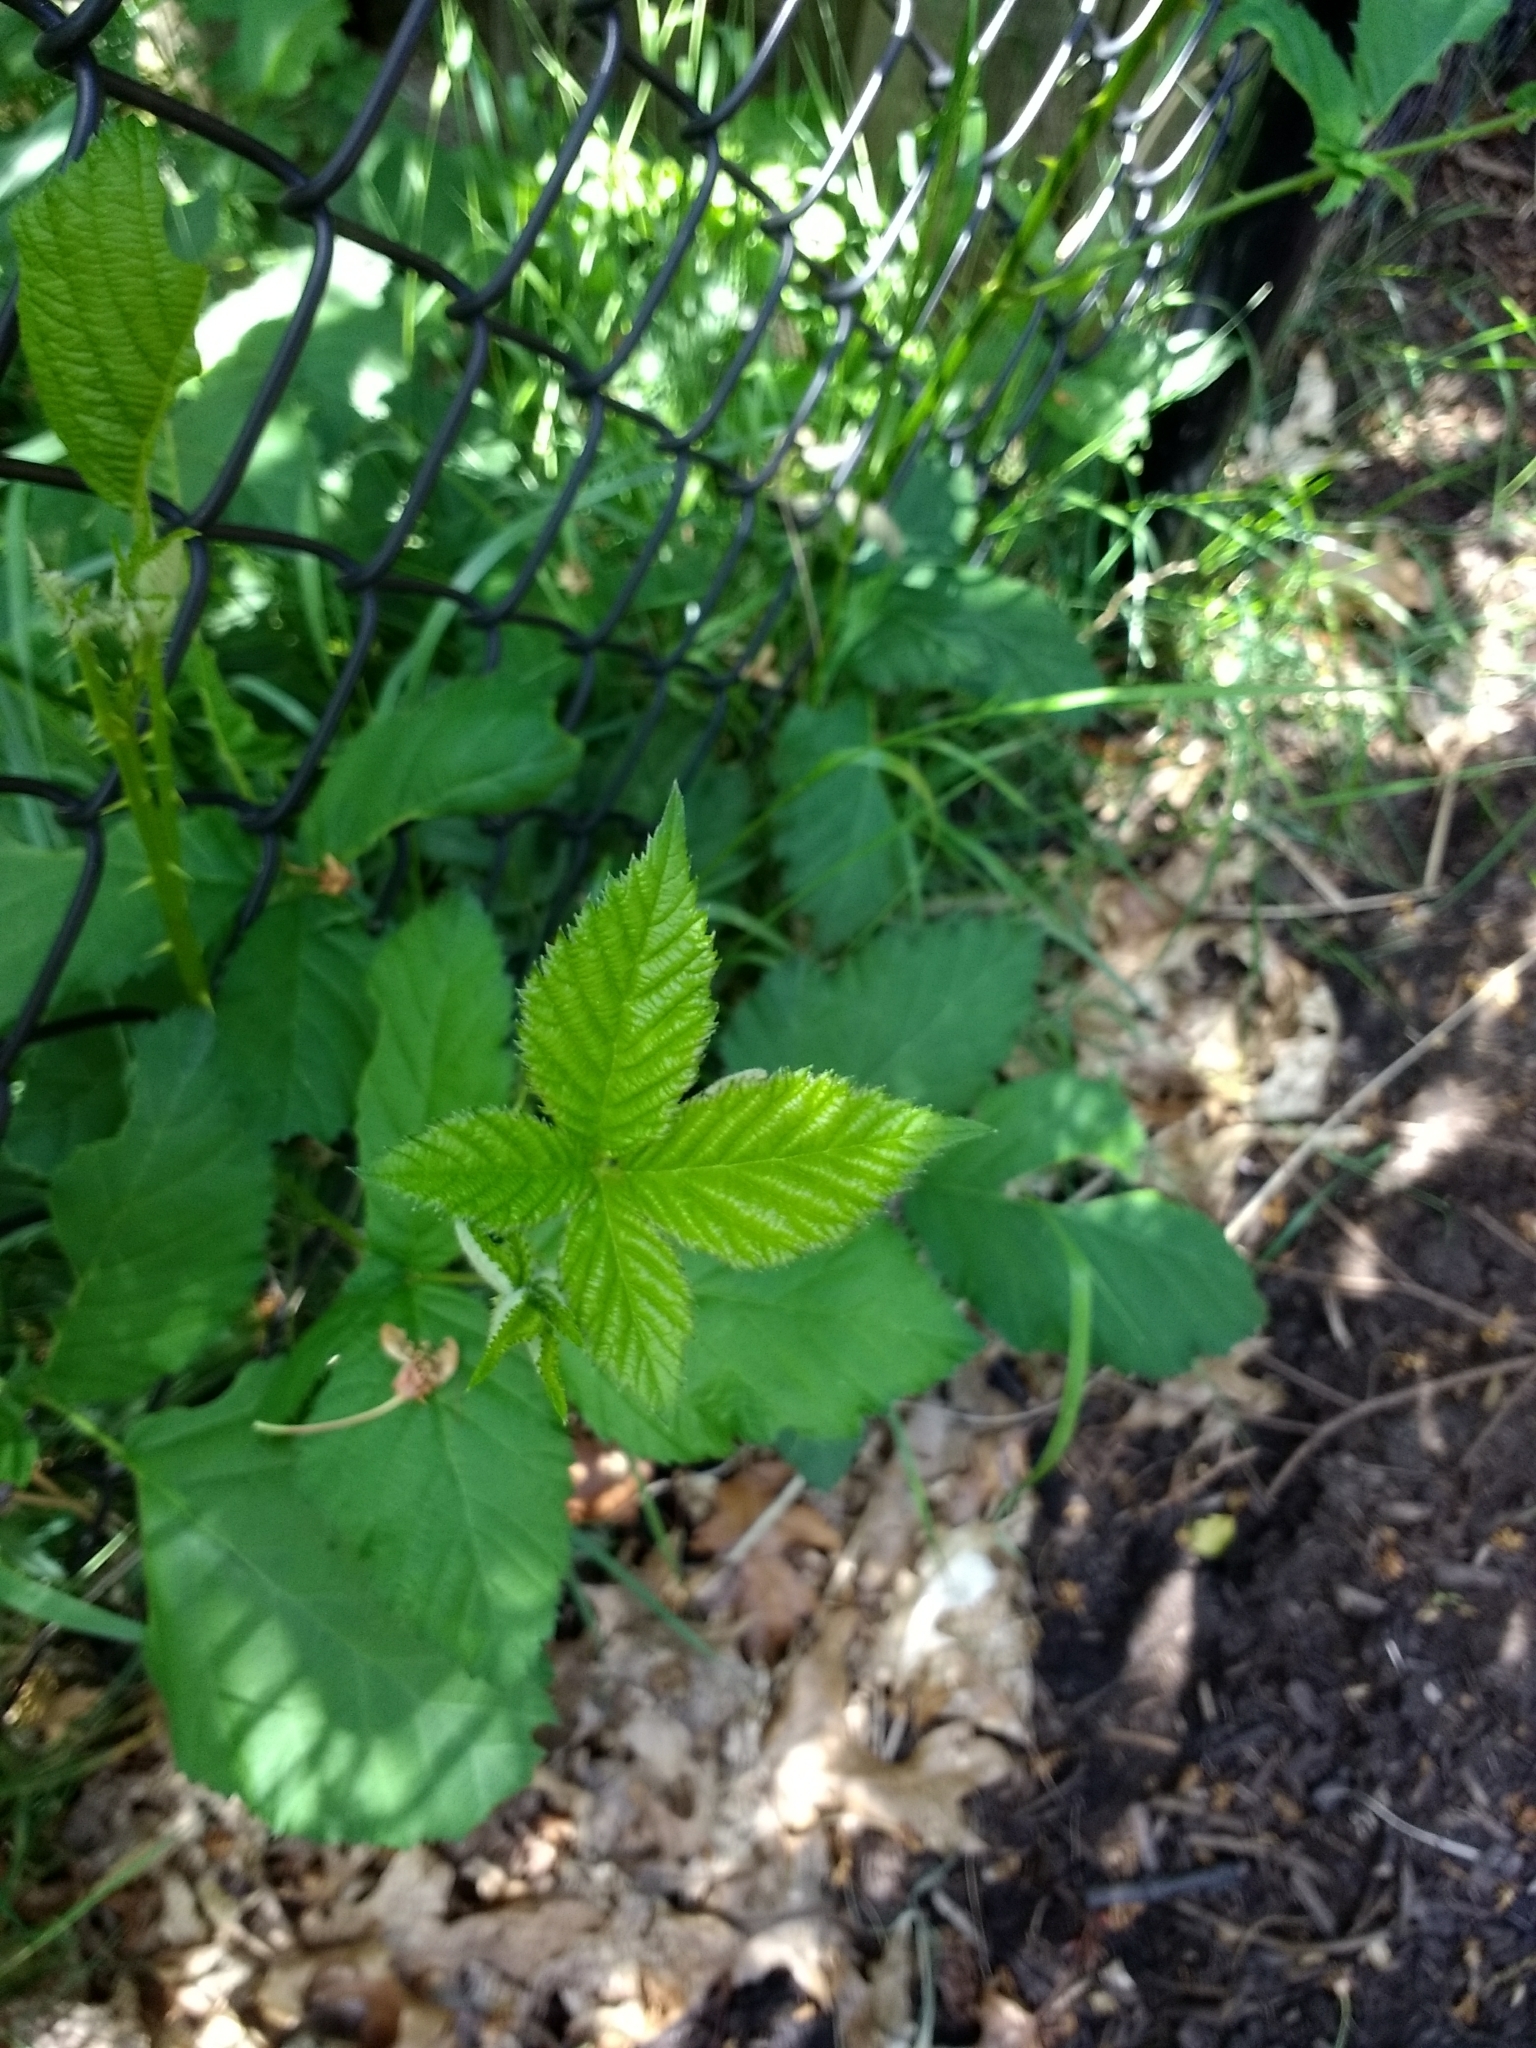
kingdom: Plantae
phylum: Tracheophyta
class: Magnoliopsida
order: Rosales
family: Rosaceae
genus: Rubus
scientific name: Rubus armeniacus
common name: Himalayan blackberry
